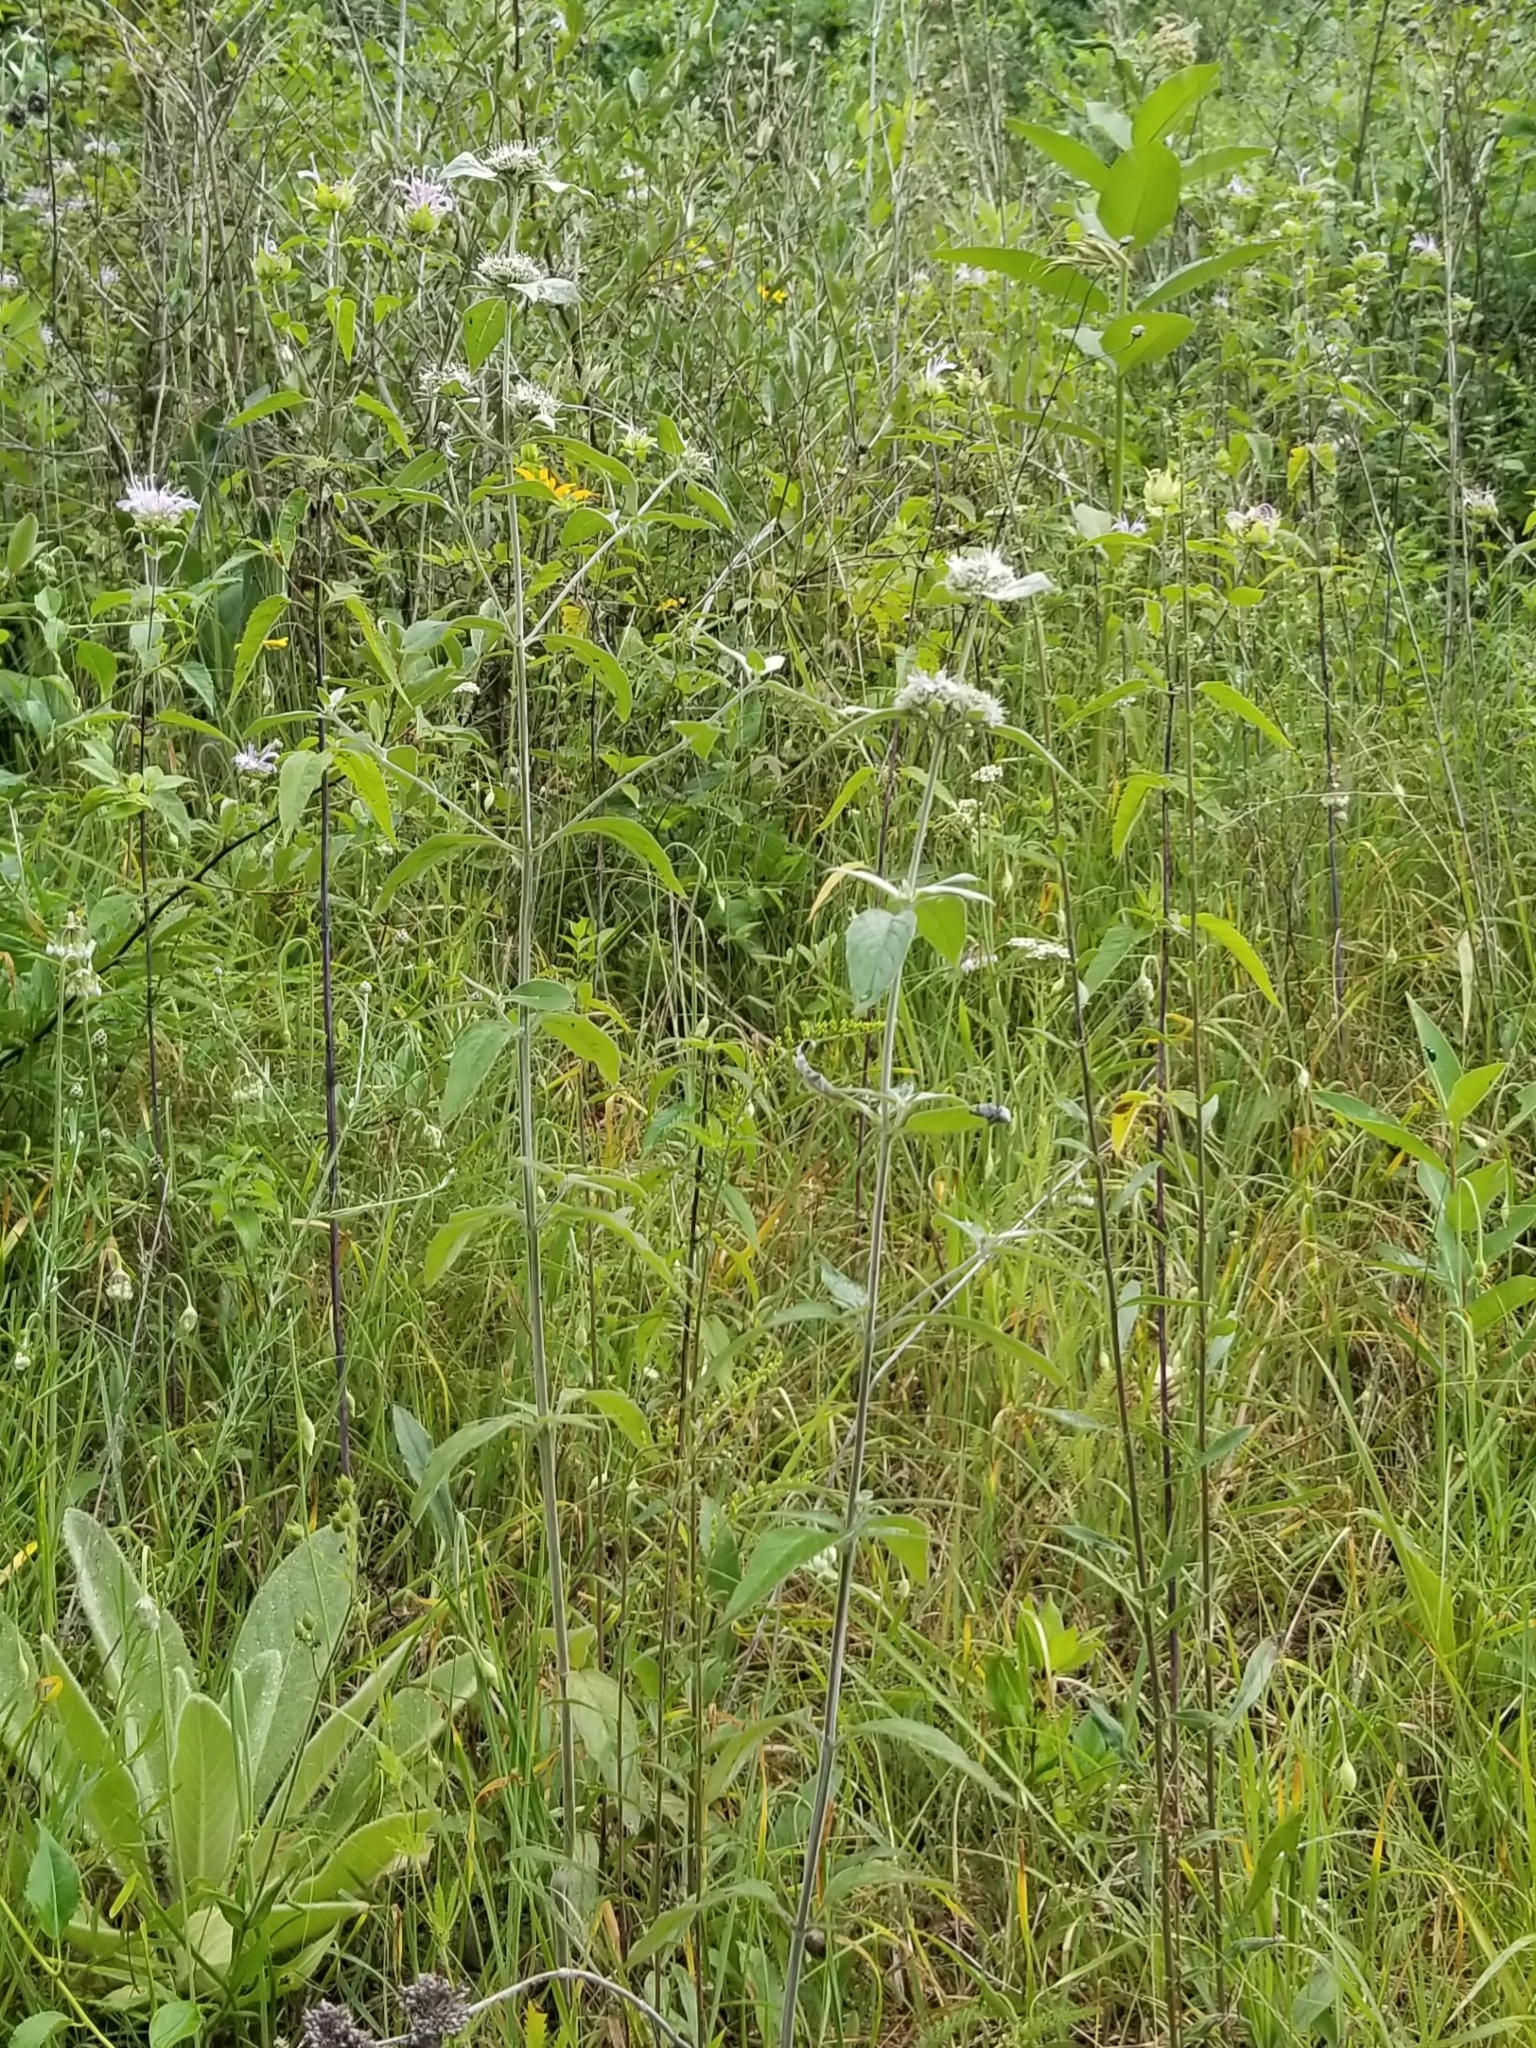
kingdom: Plantae
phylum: Tracheophyta
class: Magnoliopsida
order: Lamiales
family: Lamiaceae
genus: Monarda
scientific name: Monarda fistulosa
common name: Purple beebalm
